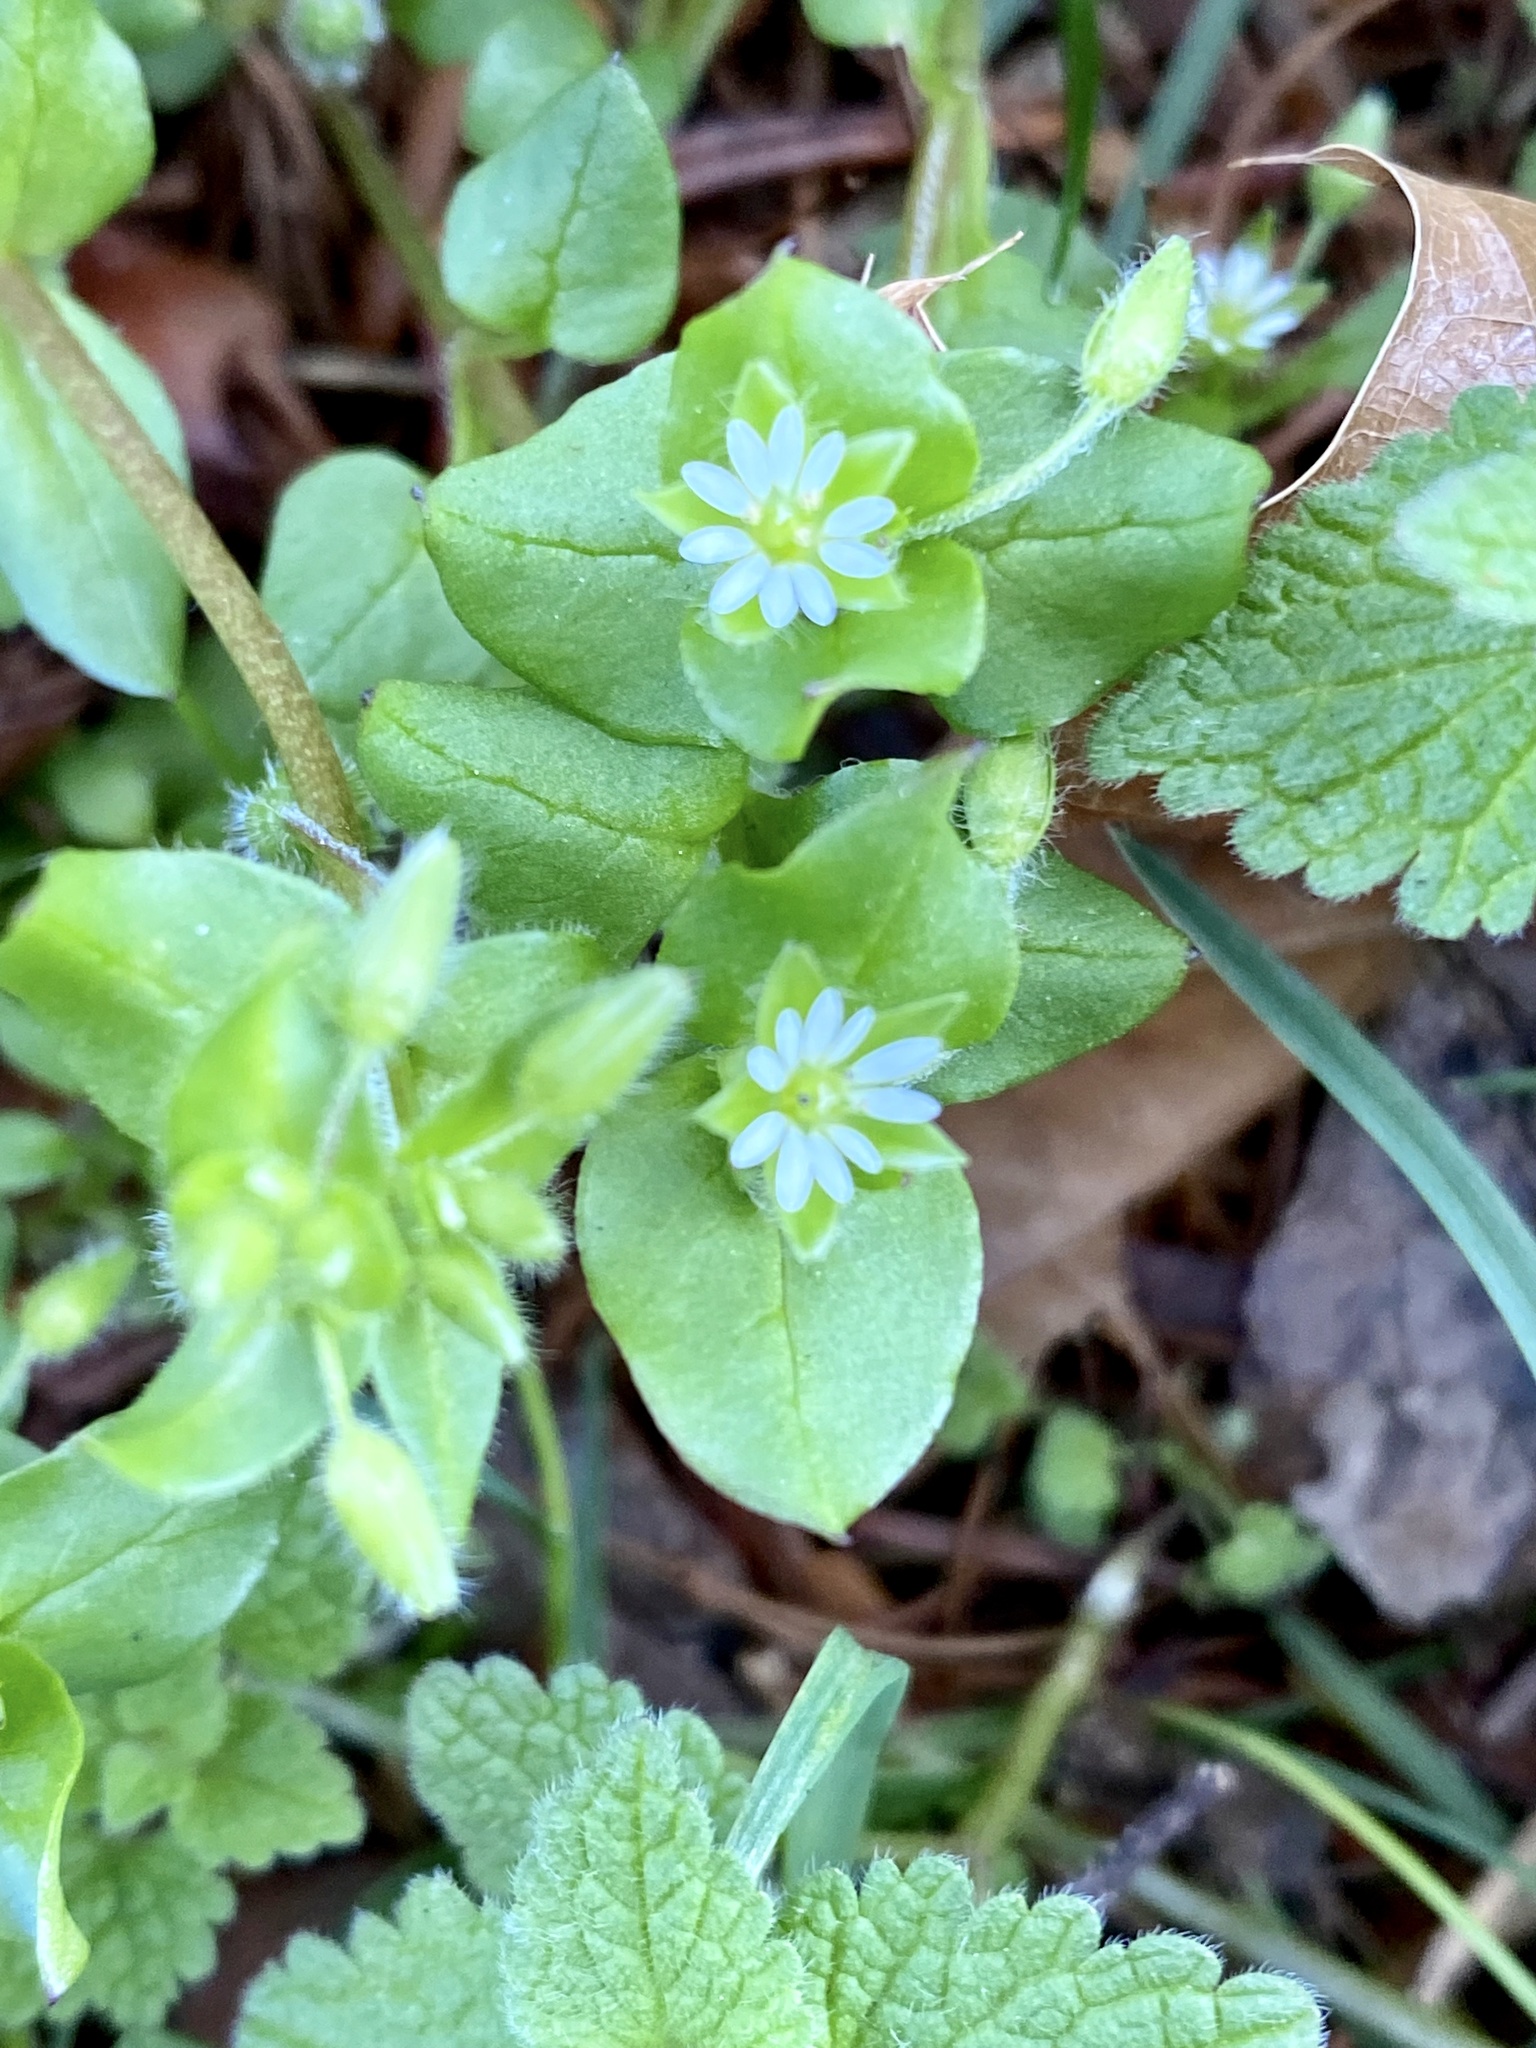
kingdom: Plantae
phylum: Tracheophyta
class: Magnoliopsida
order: Caryophyllales
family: Caryophyllaceae
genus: Stellaria
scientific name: Stellaria media
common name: Common chickweed
